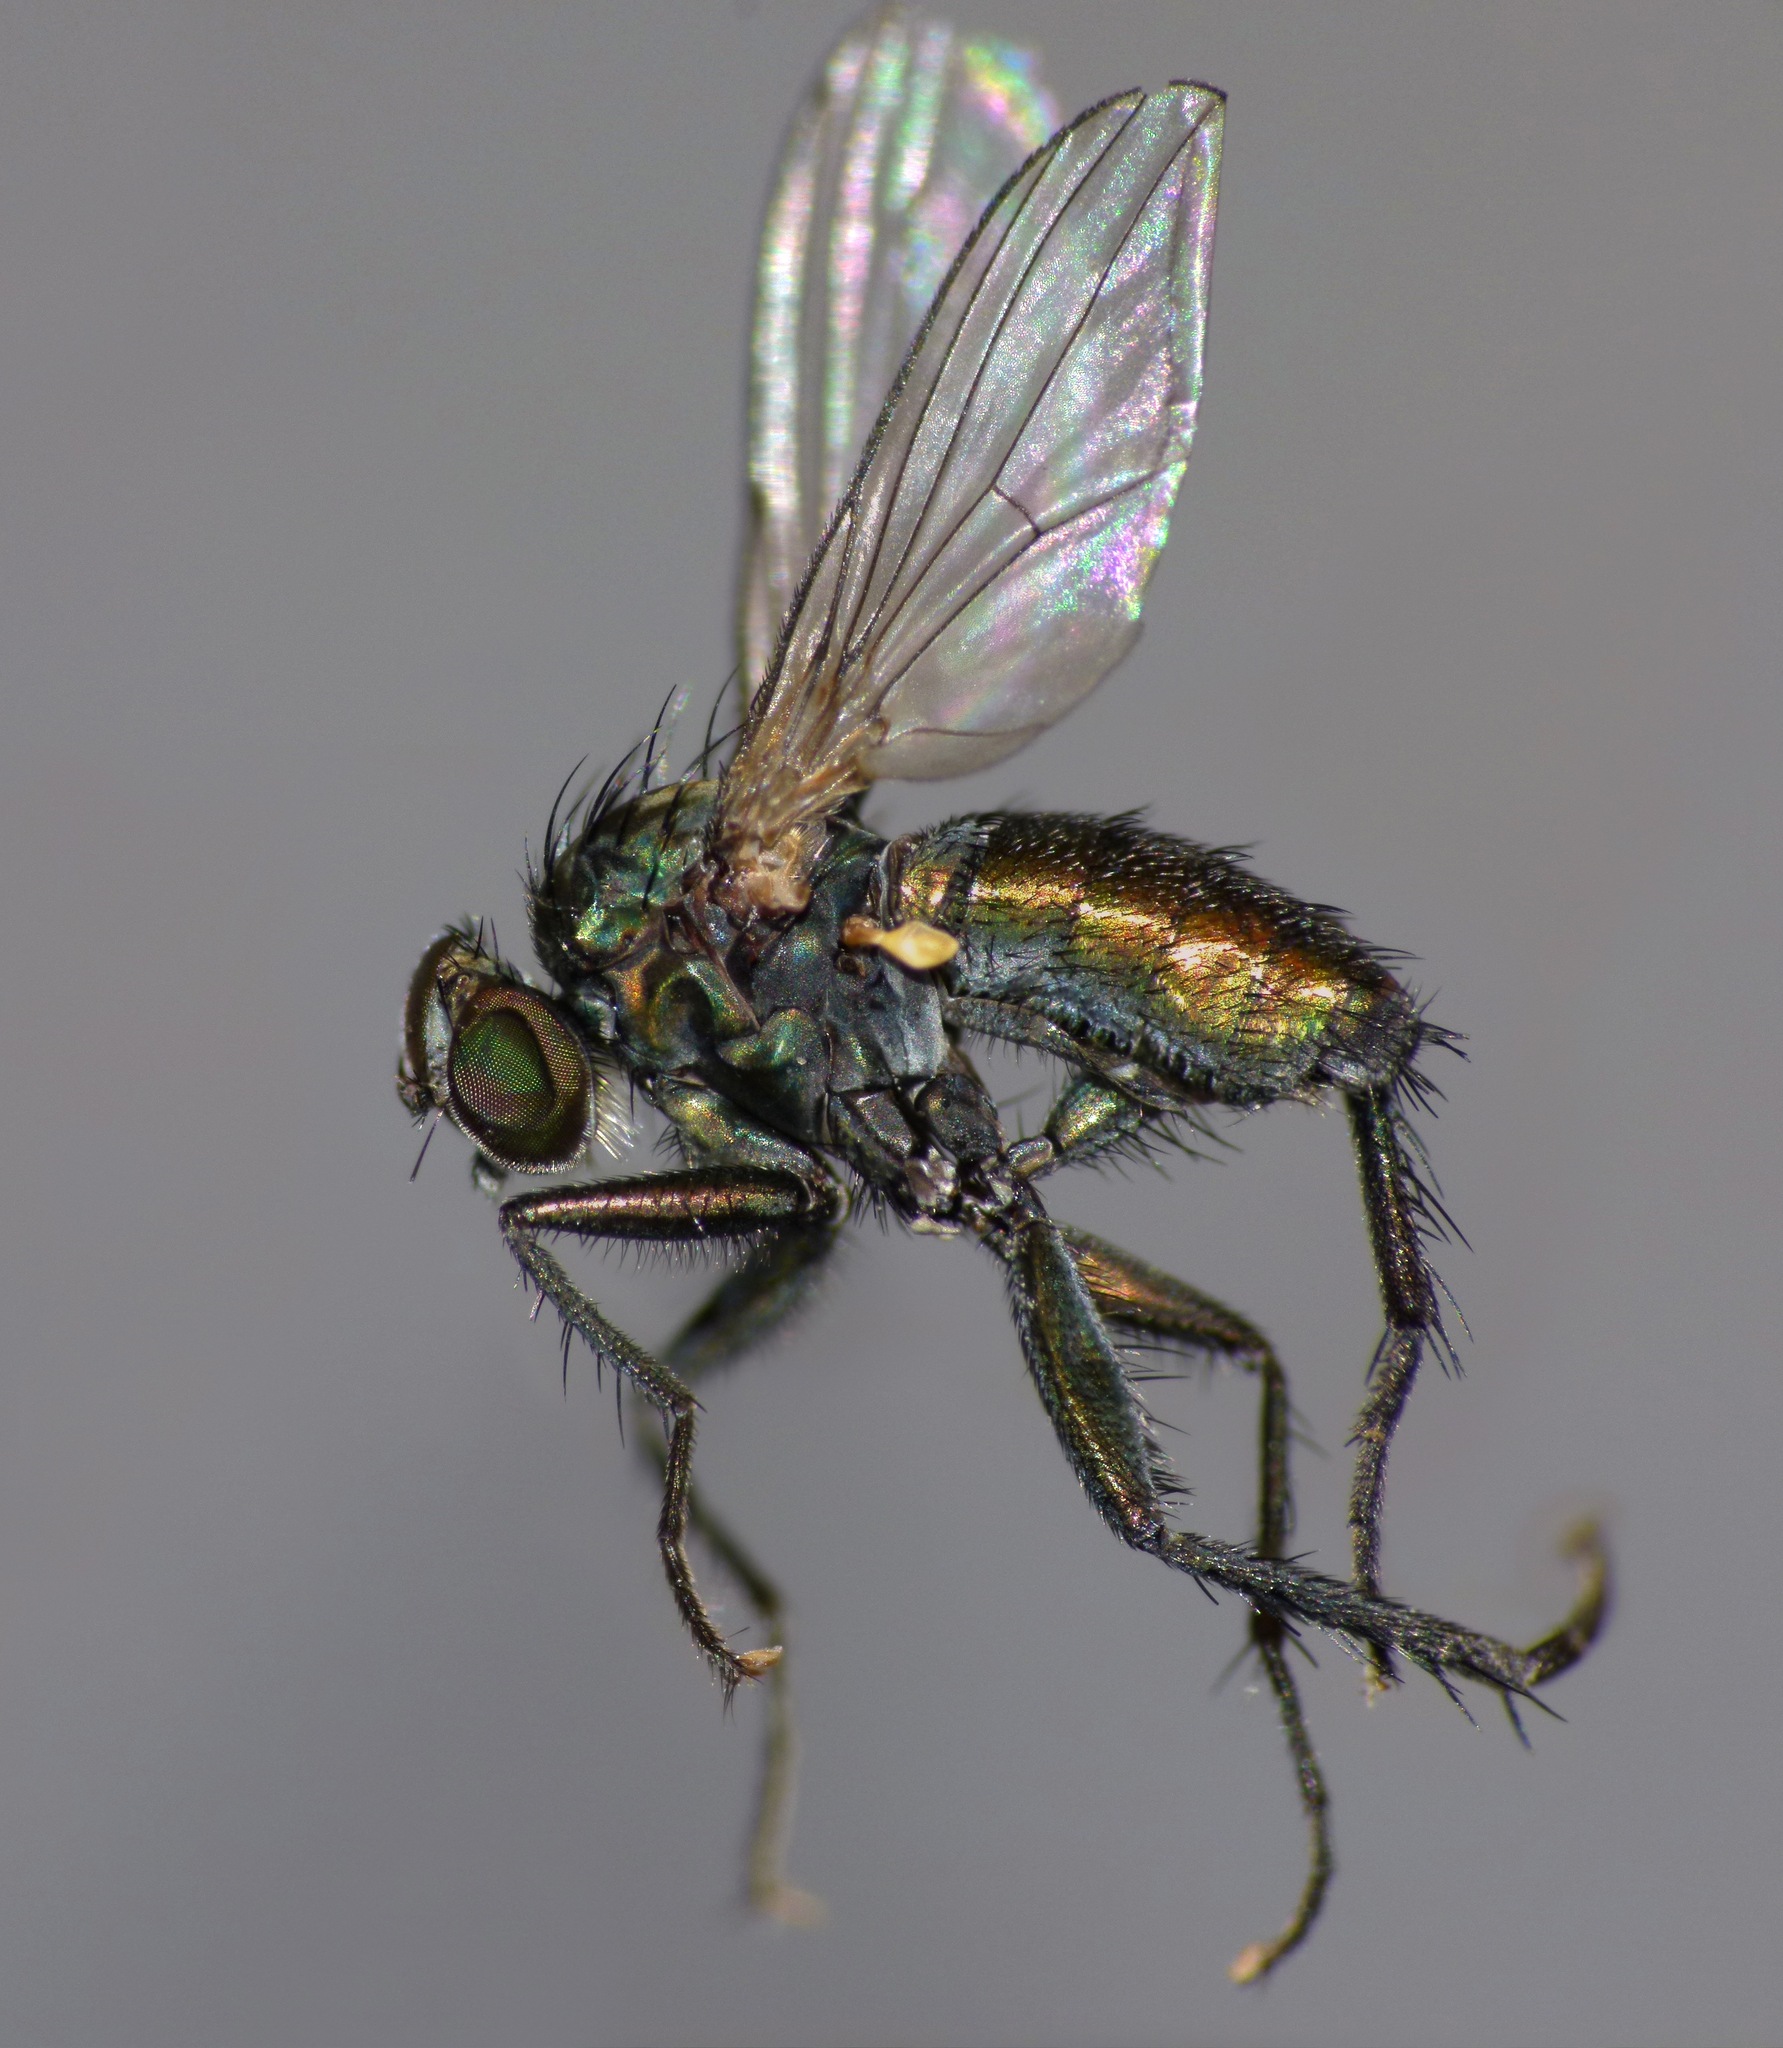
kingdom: Animalia
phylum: Arthropoda
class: Insecta
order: Diptera
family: Dolichopodidae
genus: Diaphorus
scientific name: Diaphorus parapraestans
